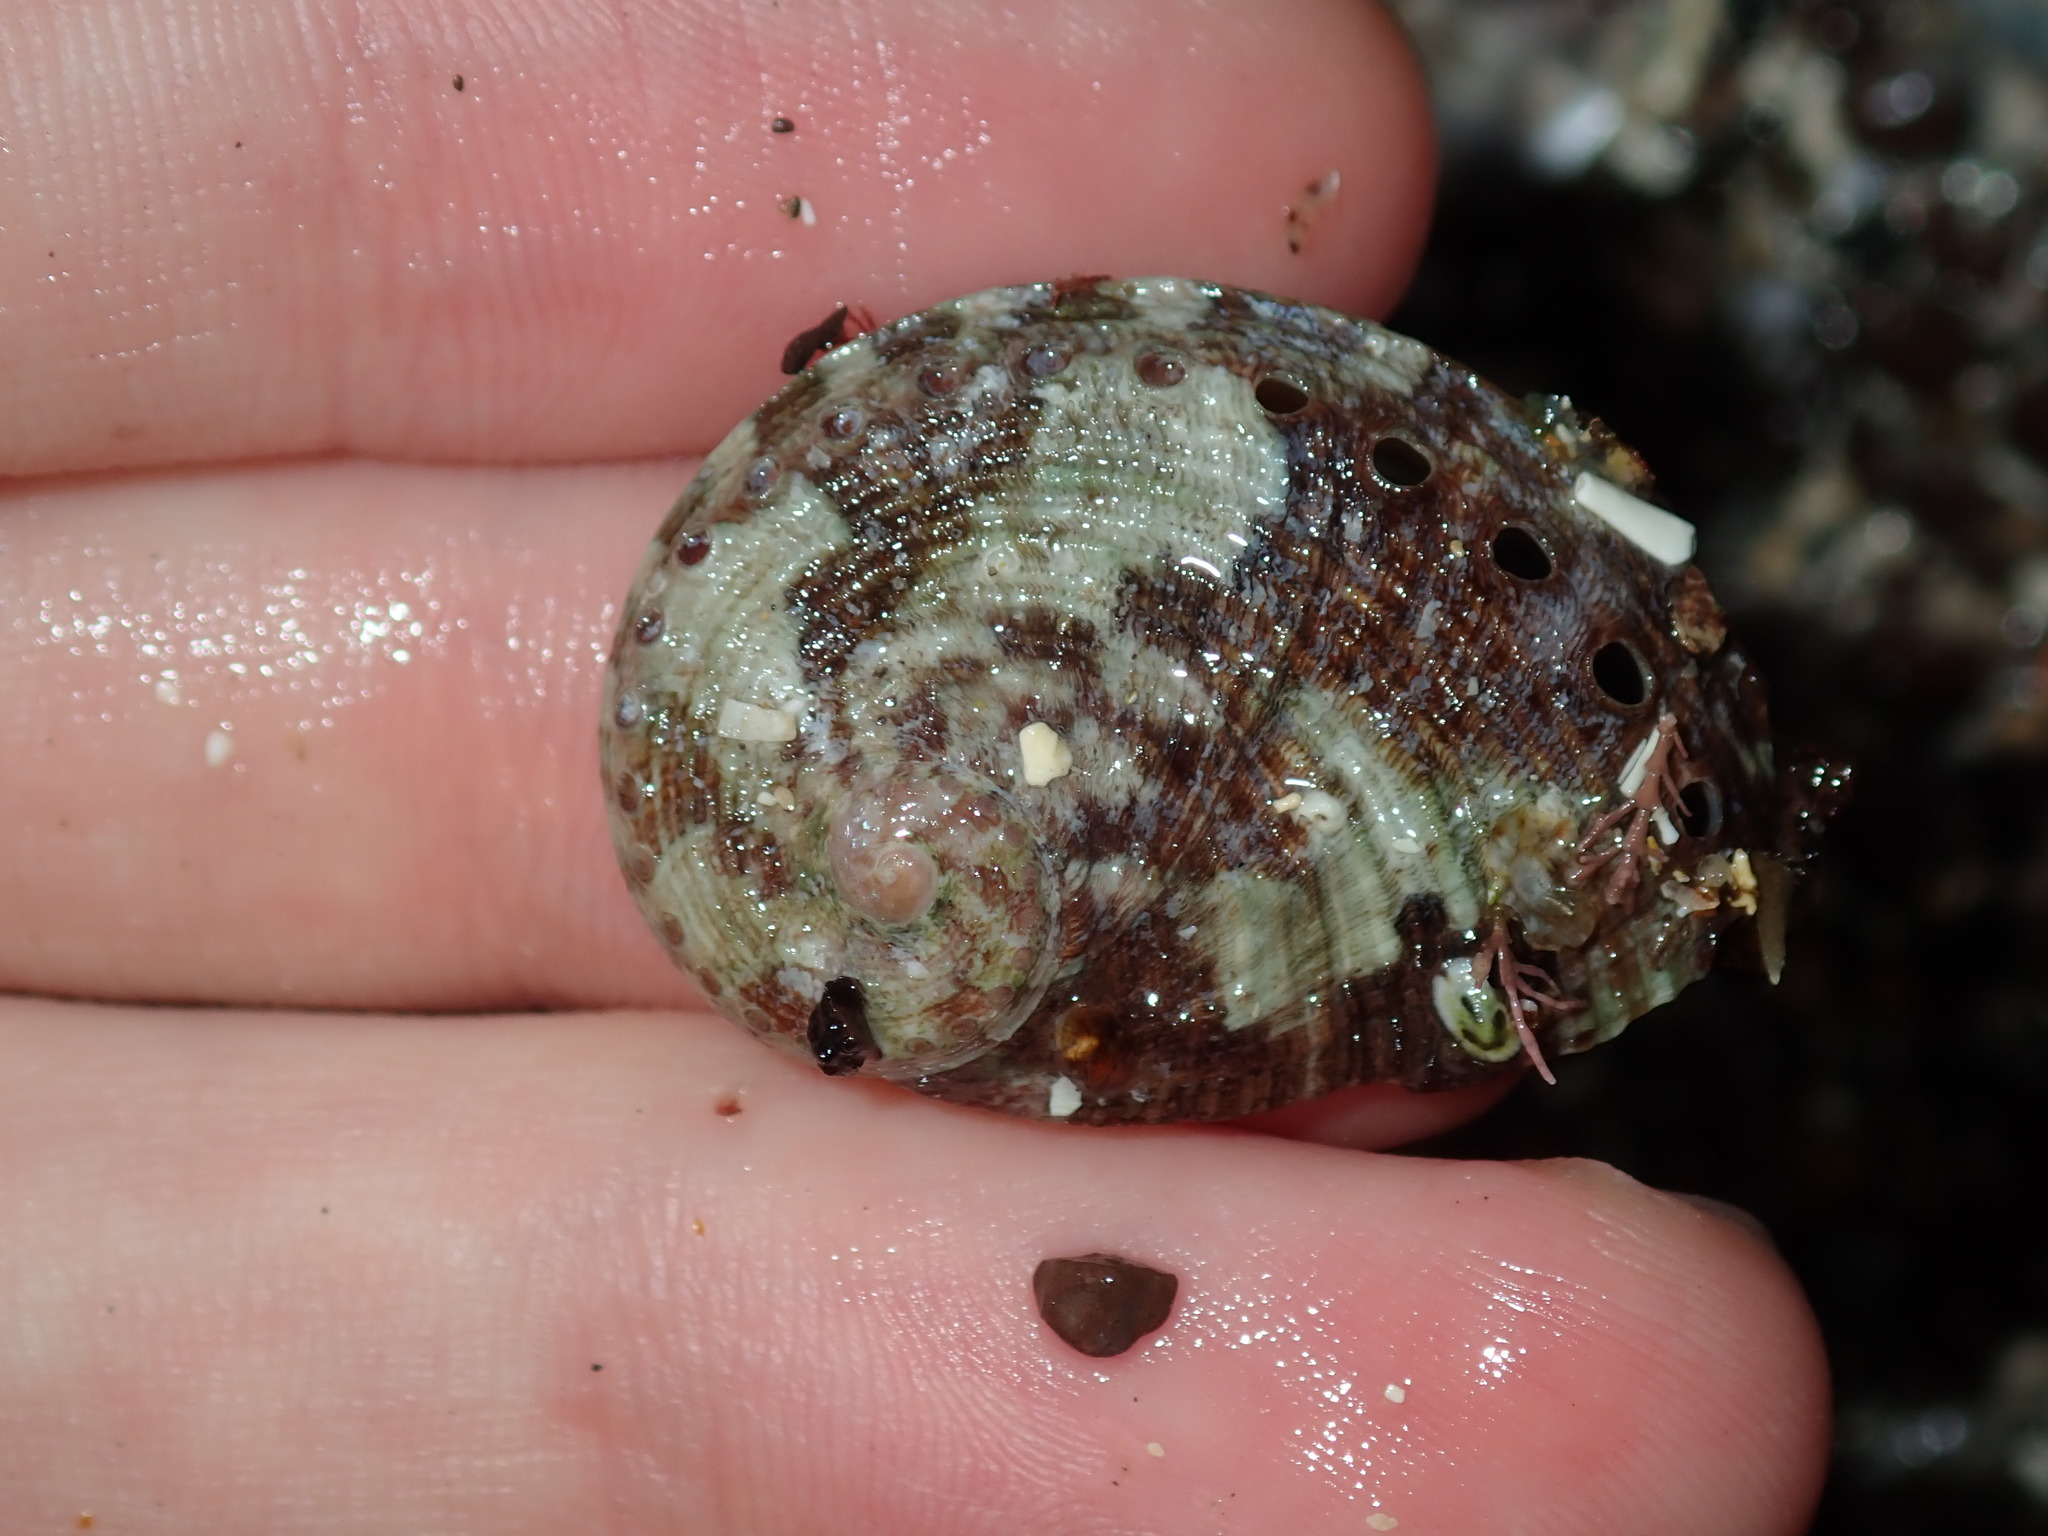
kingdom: Animalia
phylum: Mollusca
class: Gastropoda
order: Lepetellida
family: Haliotidae
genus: Haliotis
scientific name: Haliotis coccoradiata
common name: Reddish-rayed abalone
